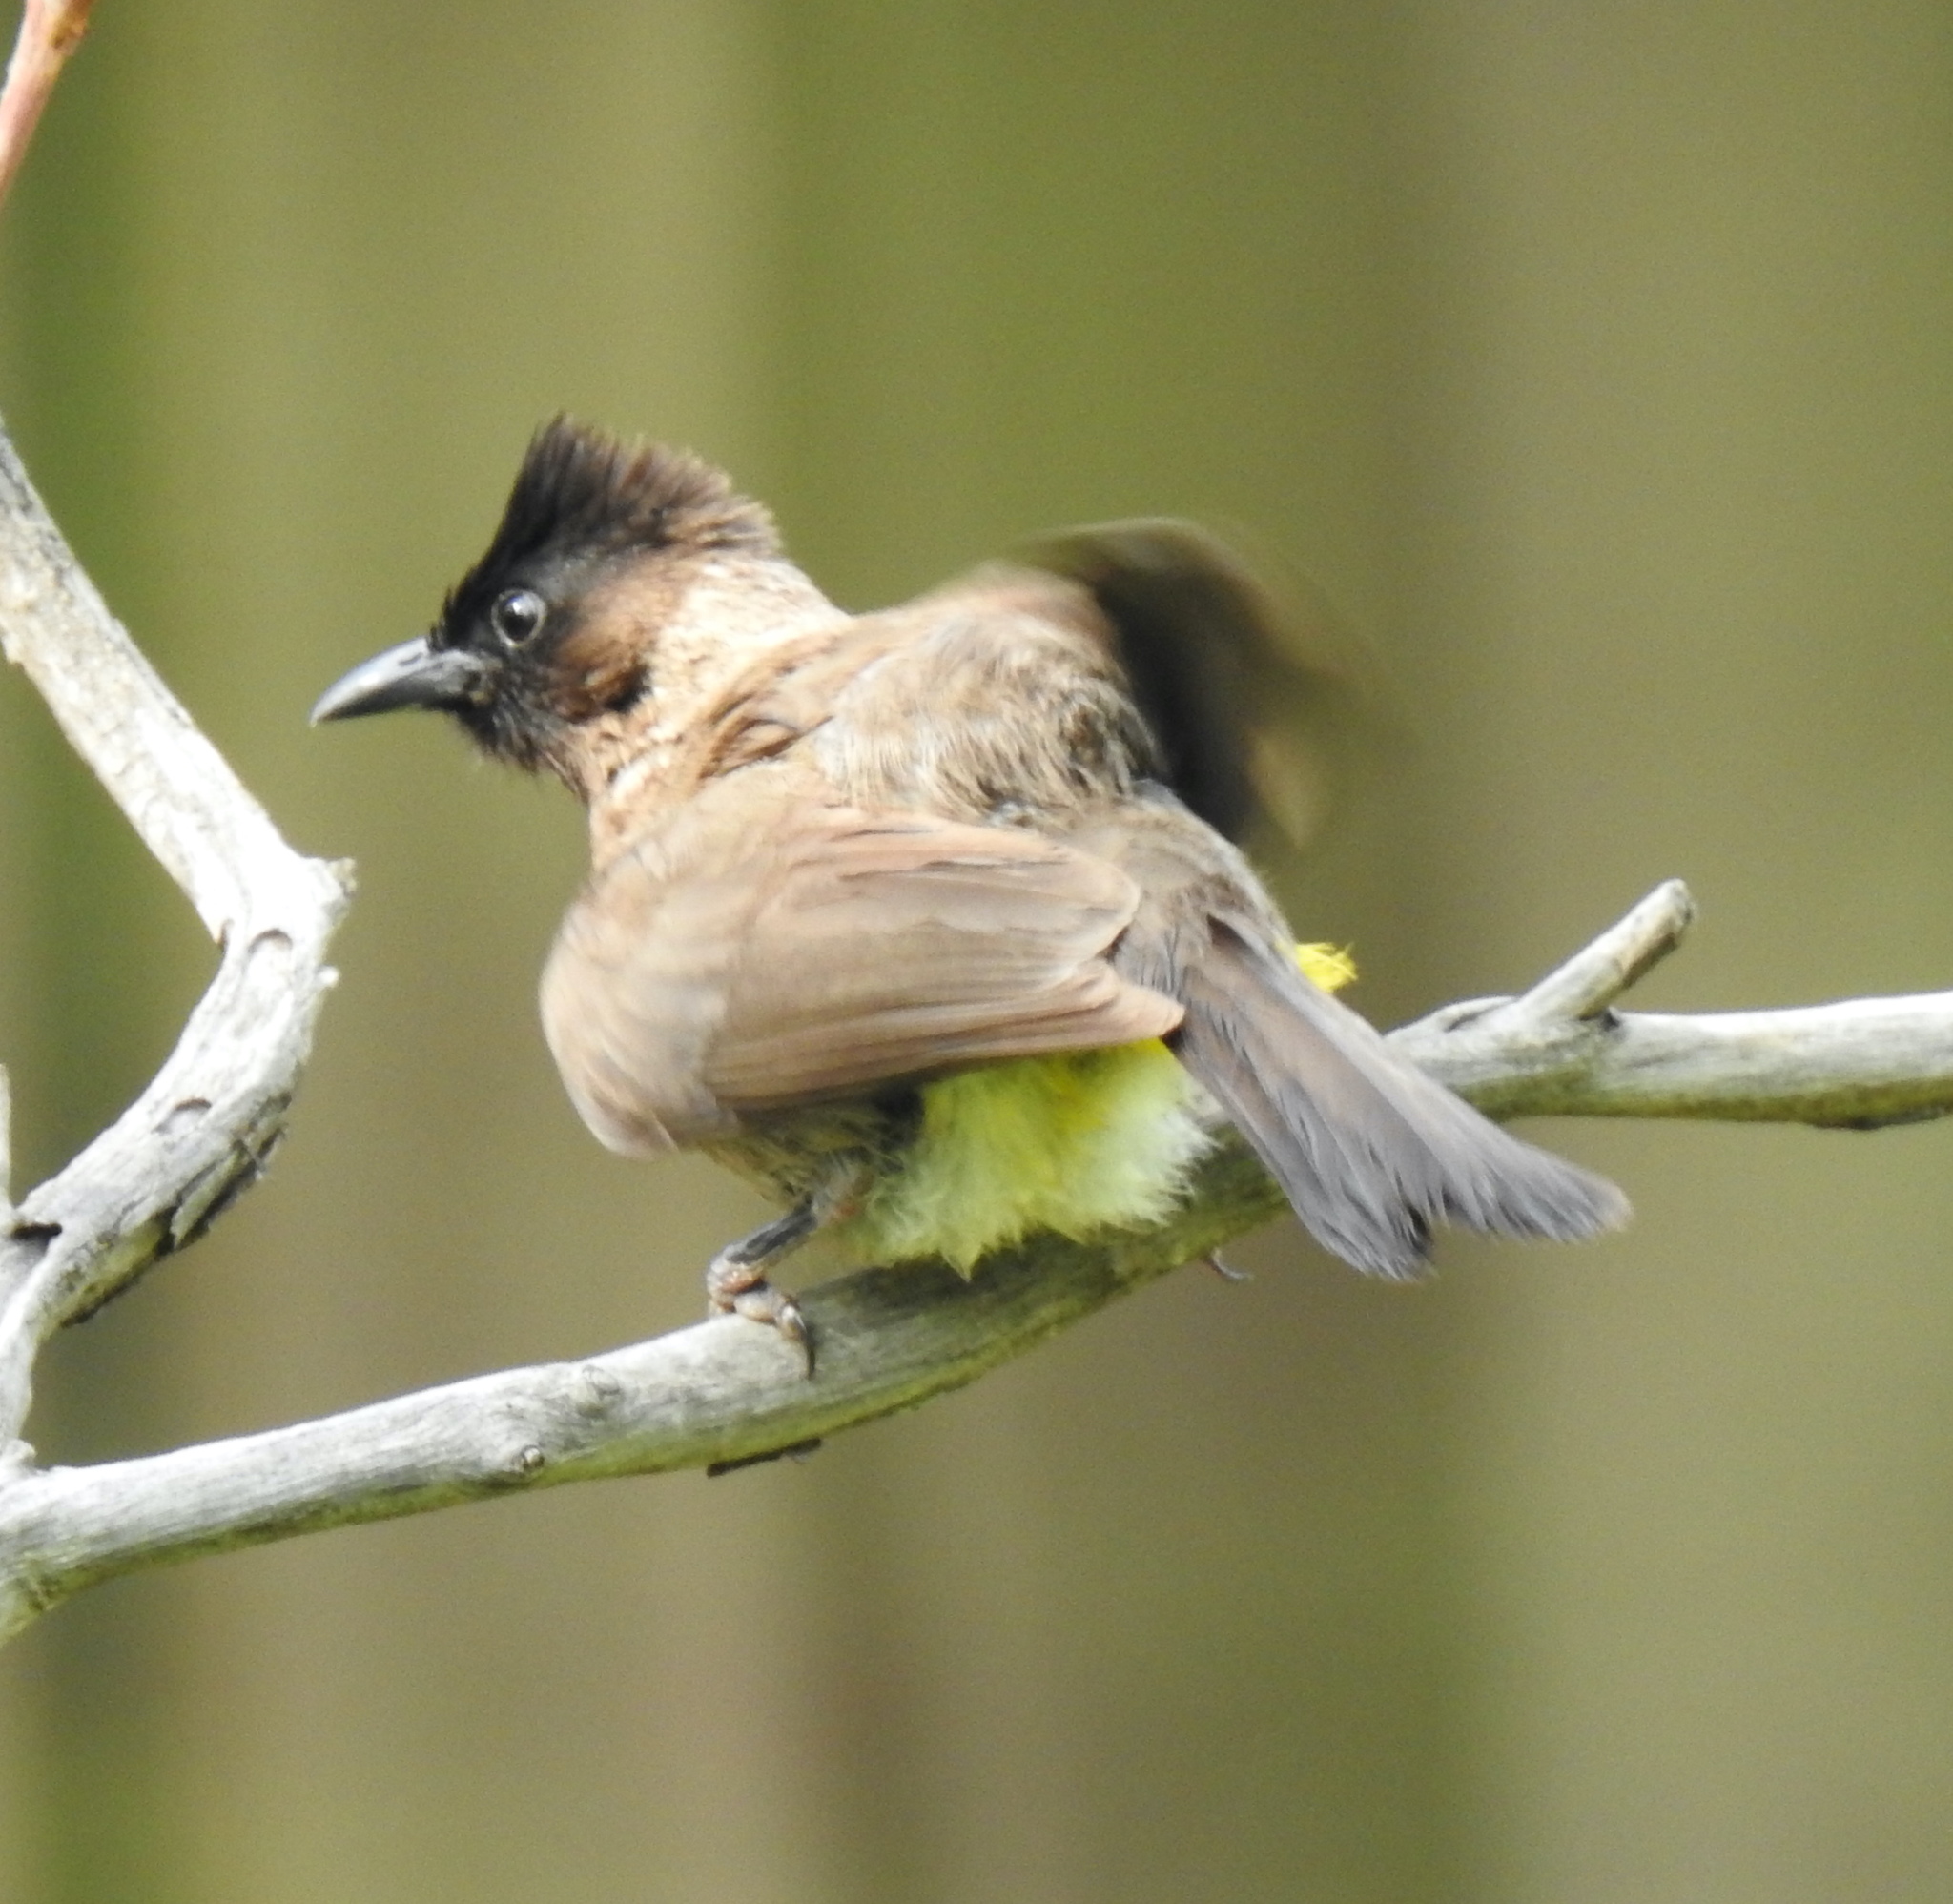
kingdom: Animalia
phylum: Chordata
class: Aves
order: Passeriformes
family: Pycnonotidae
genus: Pycnonotus
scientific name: Pycnonotus barbatus
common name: Common bulbul
